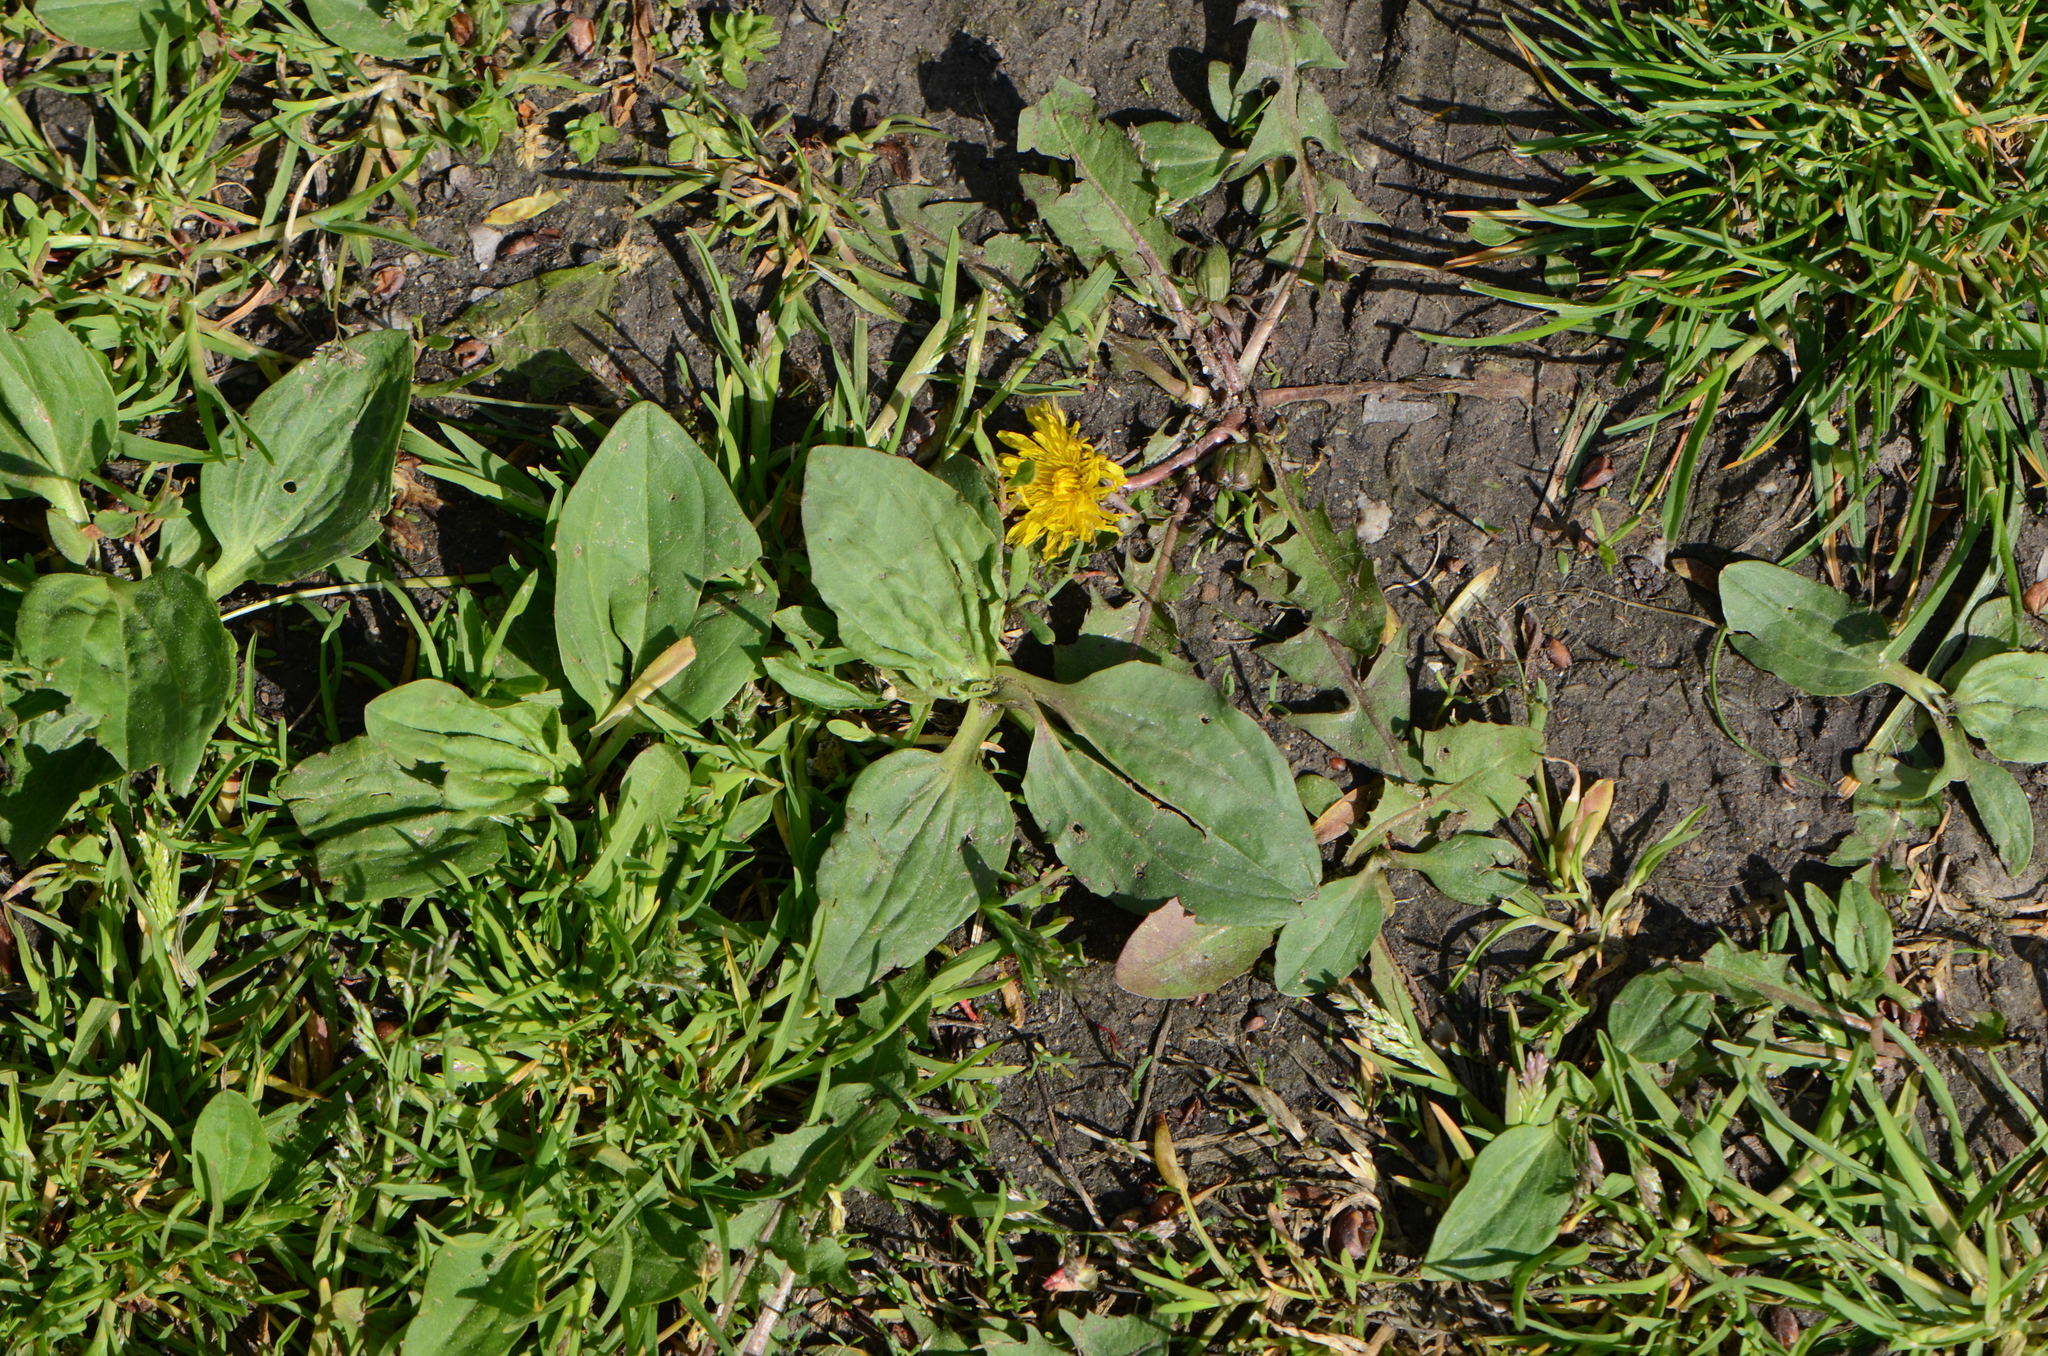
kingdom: Plantae
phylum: Tracheophyta
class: Magnoliopsida
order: Lamiales
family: Plantaginaceae
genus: Plantago
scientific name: Plantago major
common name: Common plantain
